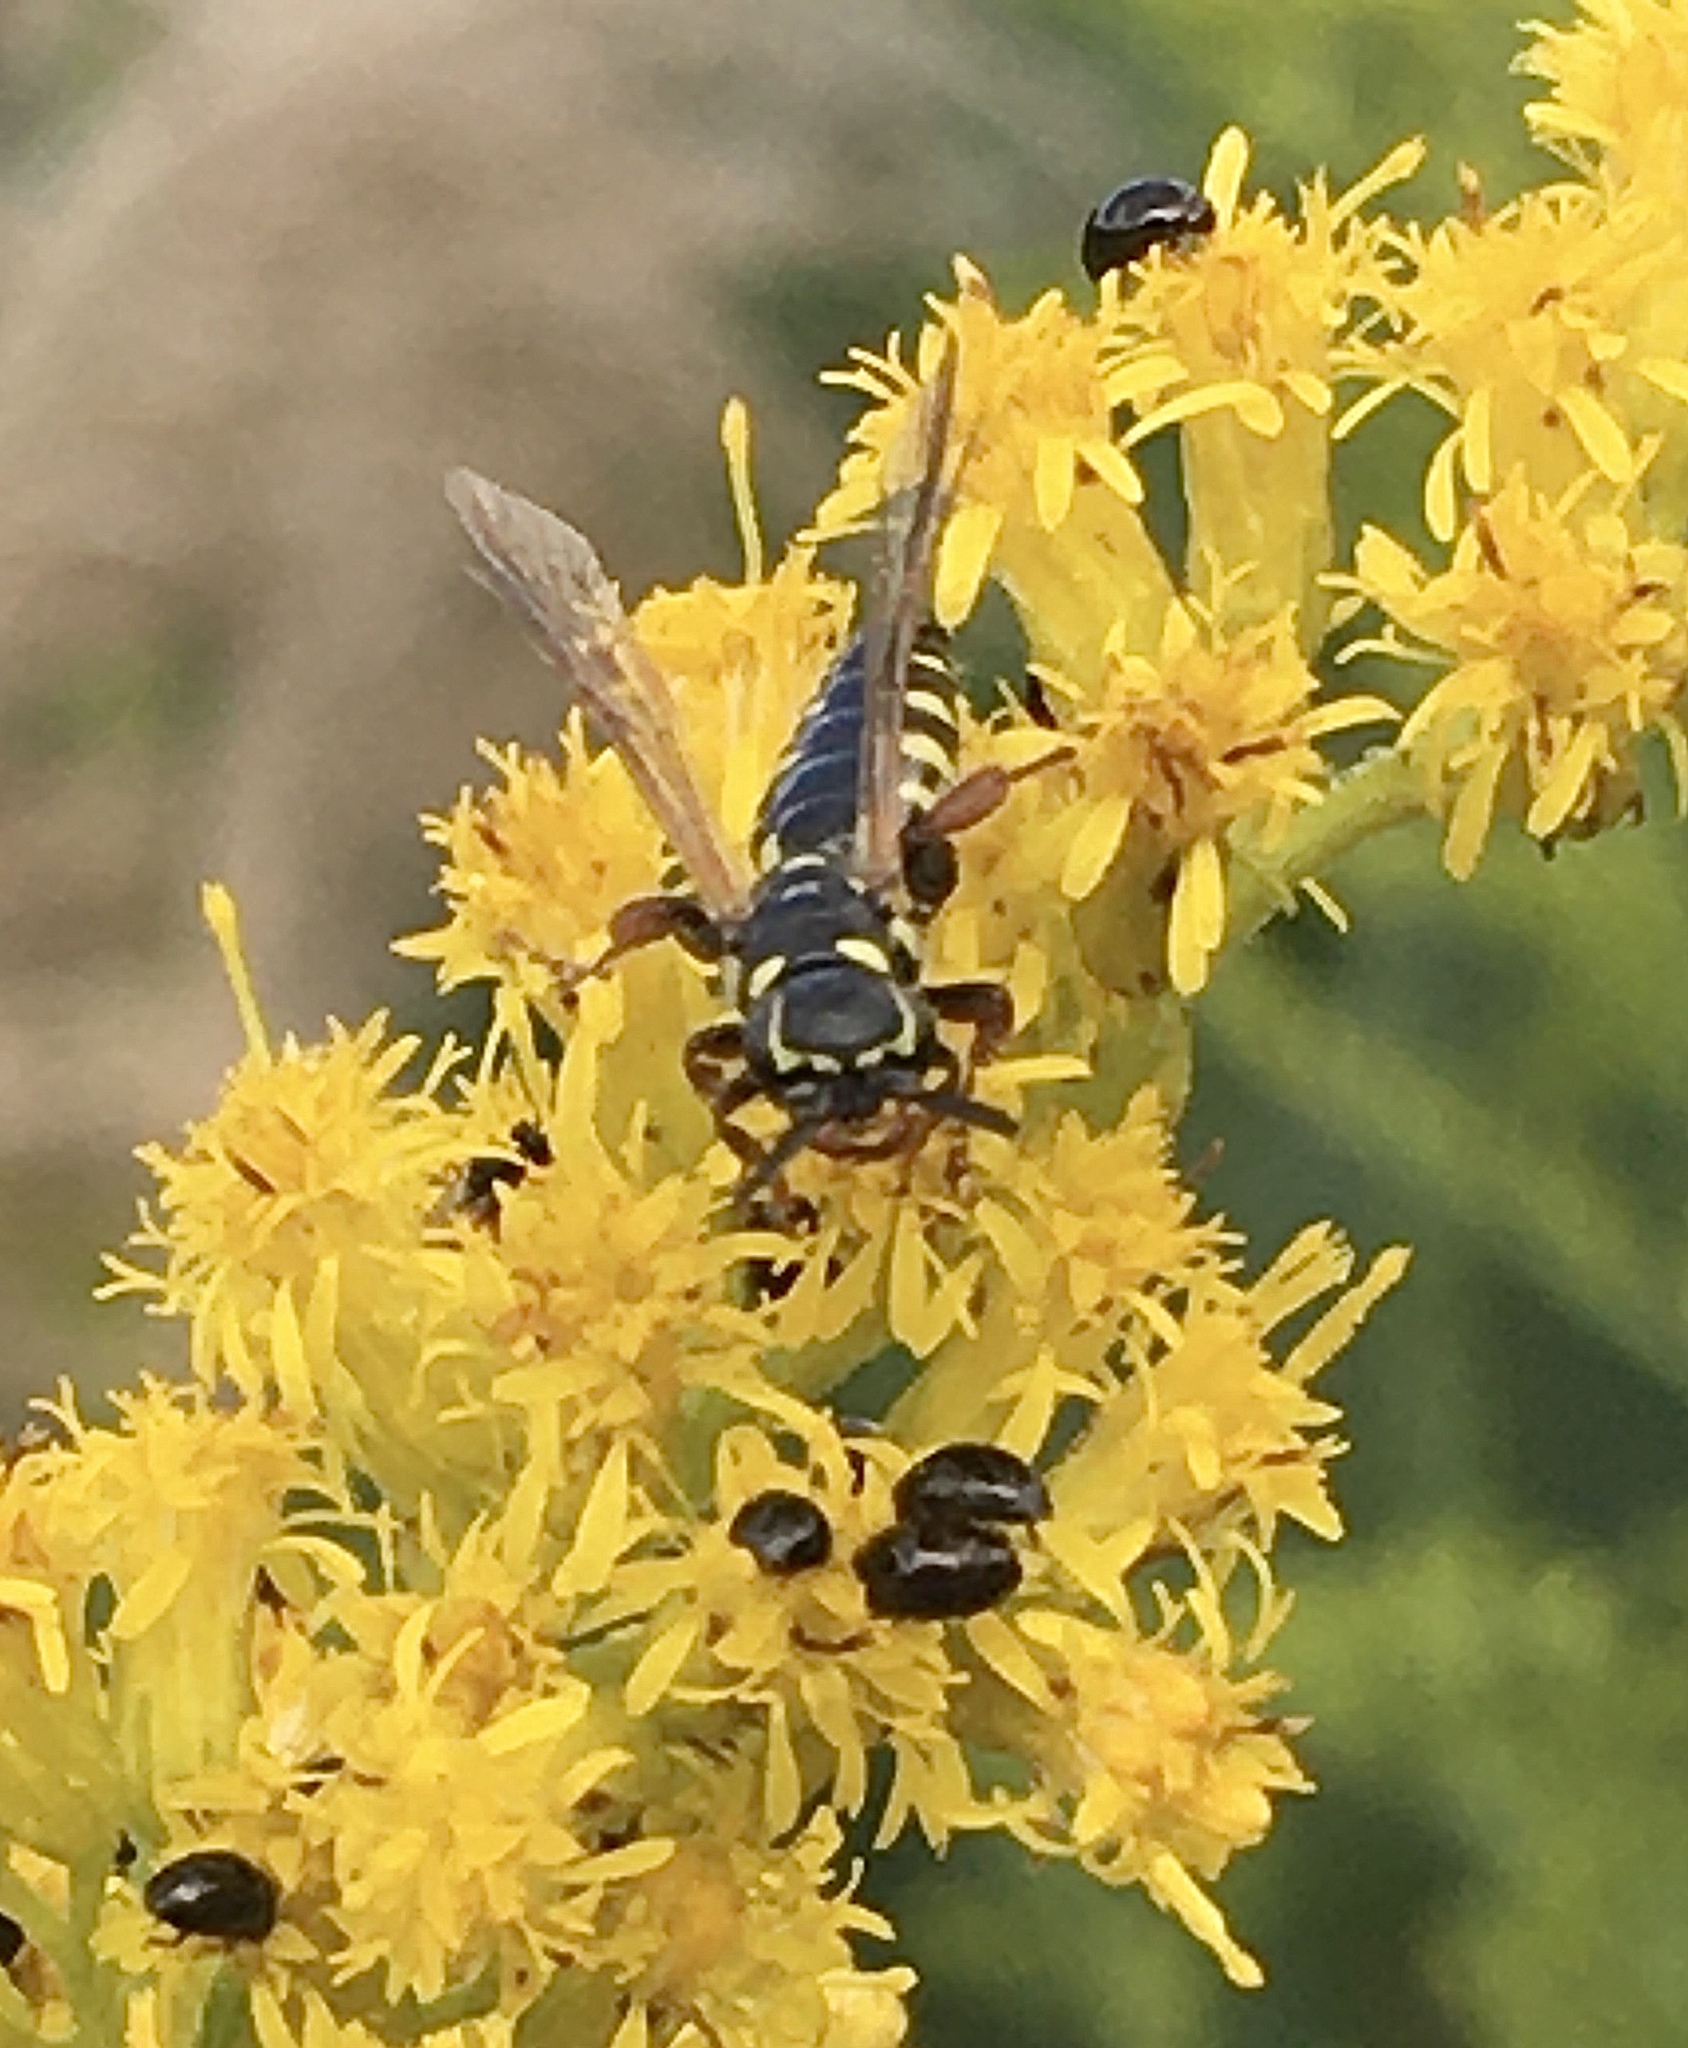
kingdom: Animalia
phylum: Arthropoda
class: Insecta
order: Hymenoptera
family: Tiphiidae
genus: Myzinum
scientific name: Myzinum maculatum
